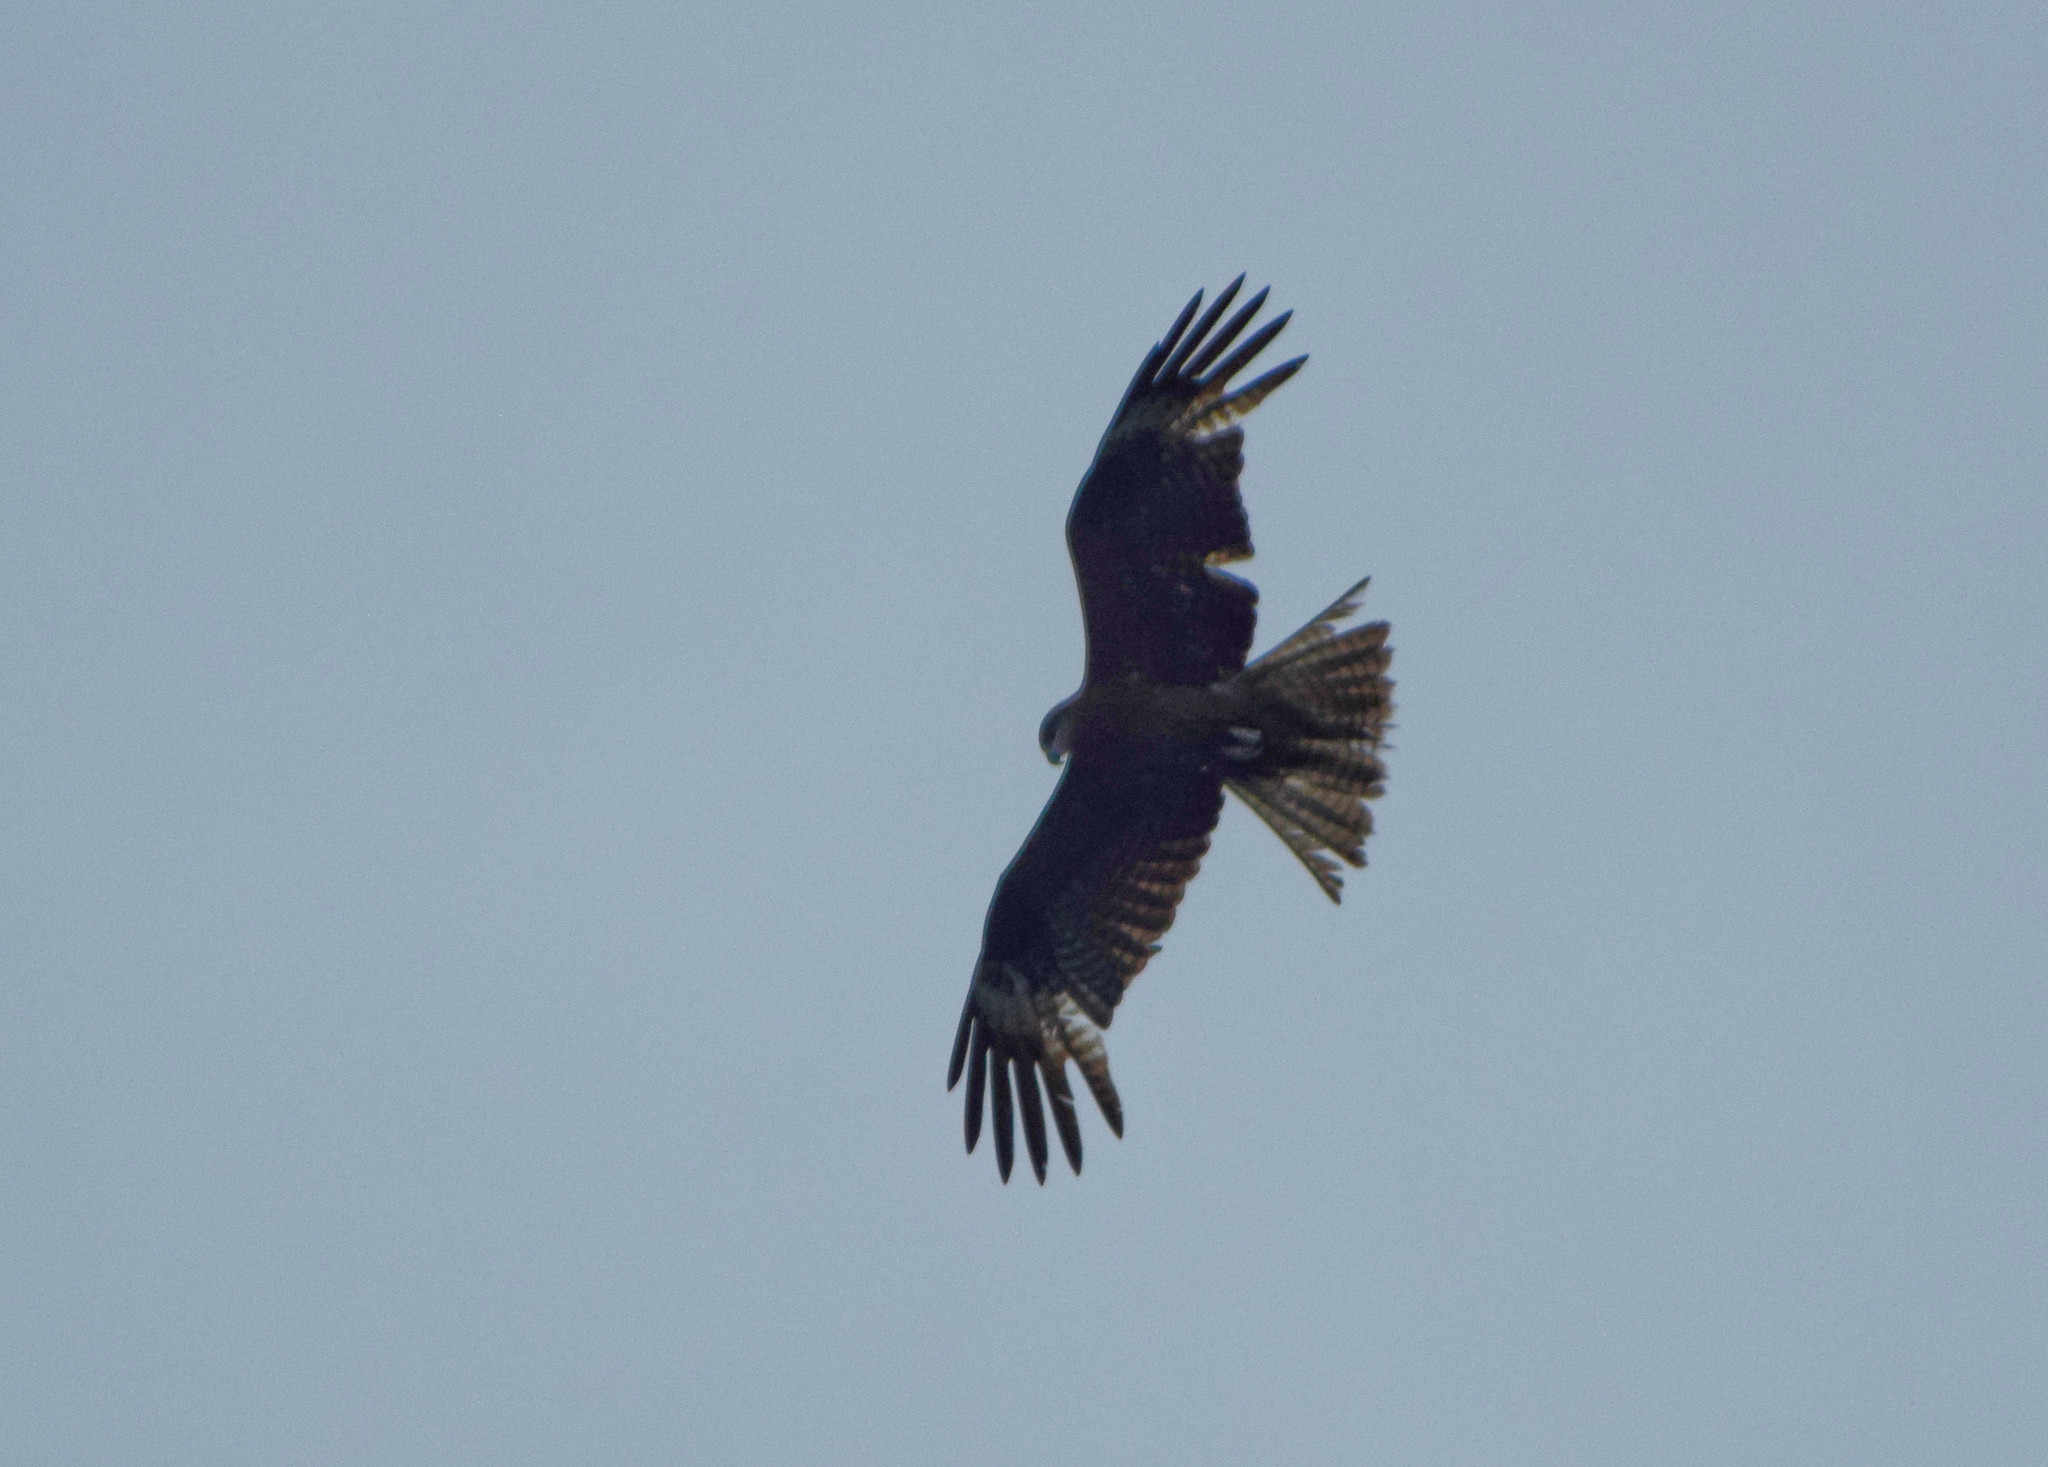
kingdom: Animalia
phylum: Chordata
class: Aves
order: Accipitriformes
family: Accipitridae
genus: Milvus
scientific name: Milvus migrans
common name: Black kite
